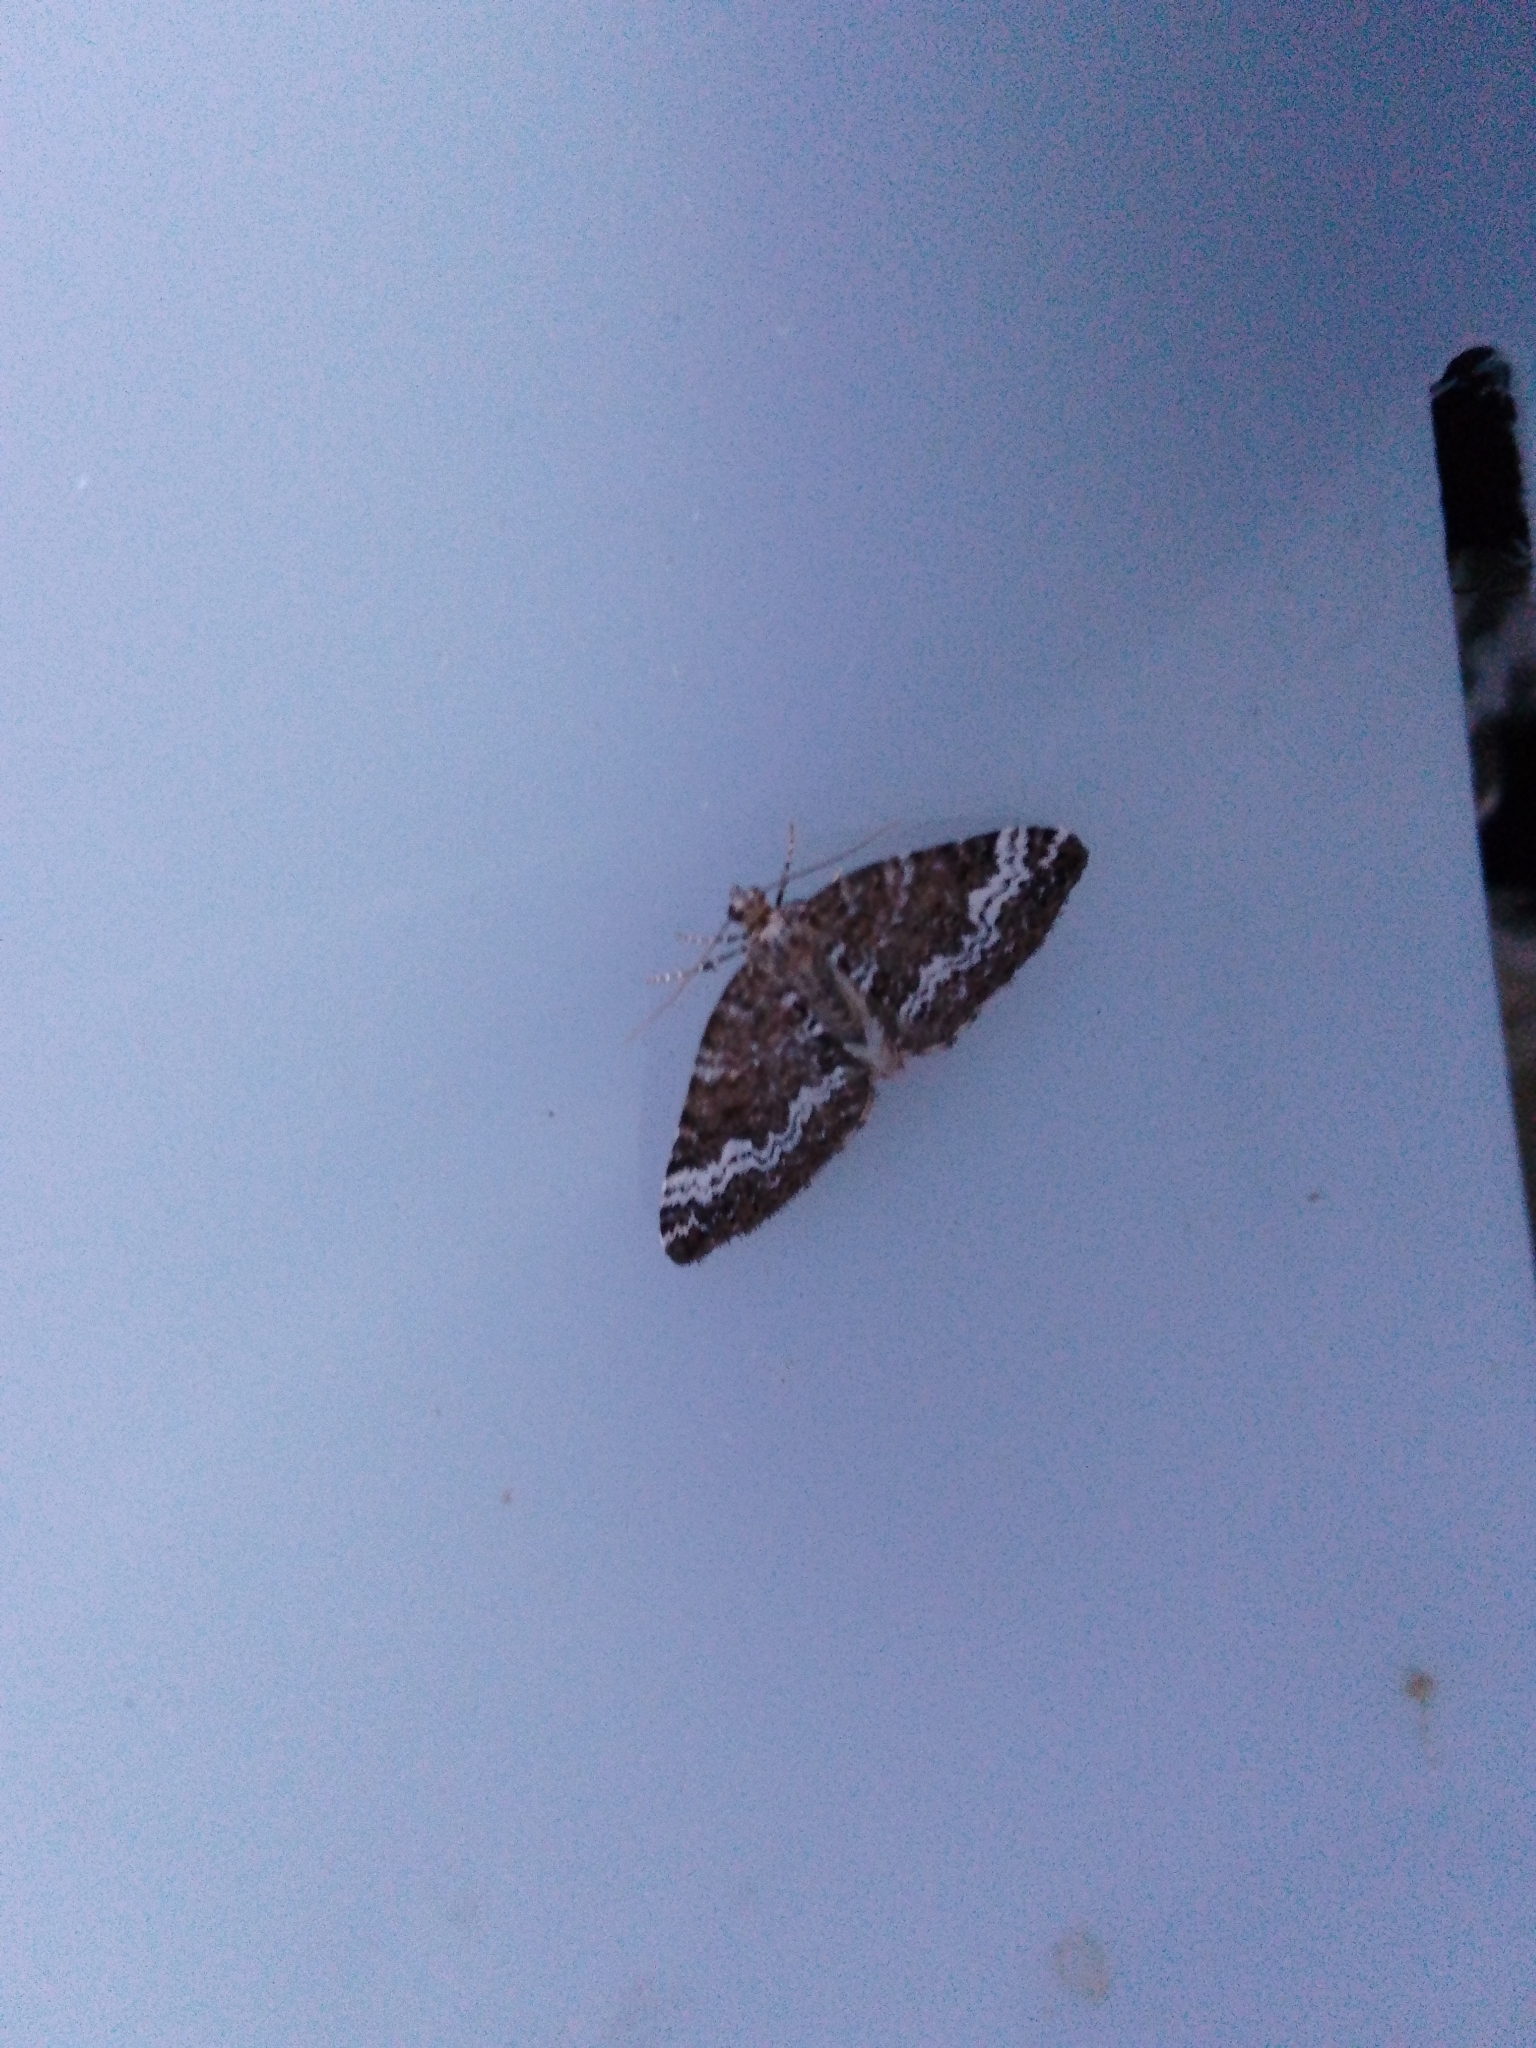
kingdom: Animalia
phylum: Arthropoda
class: Insecta
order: Lepidoptera
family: Geometridae
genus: Perizoma
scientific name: Perizoma alchemillata
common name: Small rivulet
